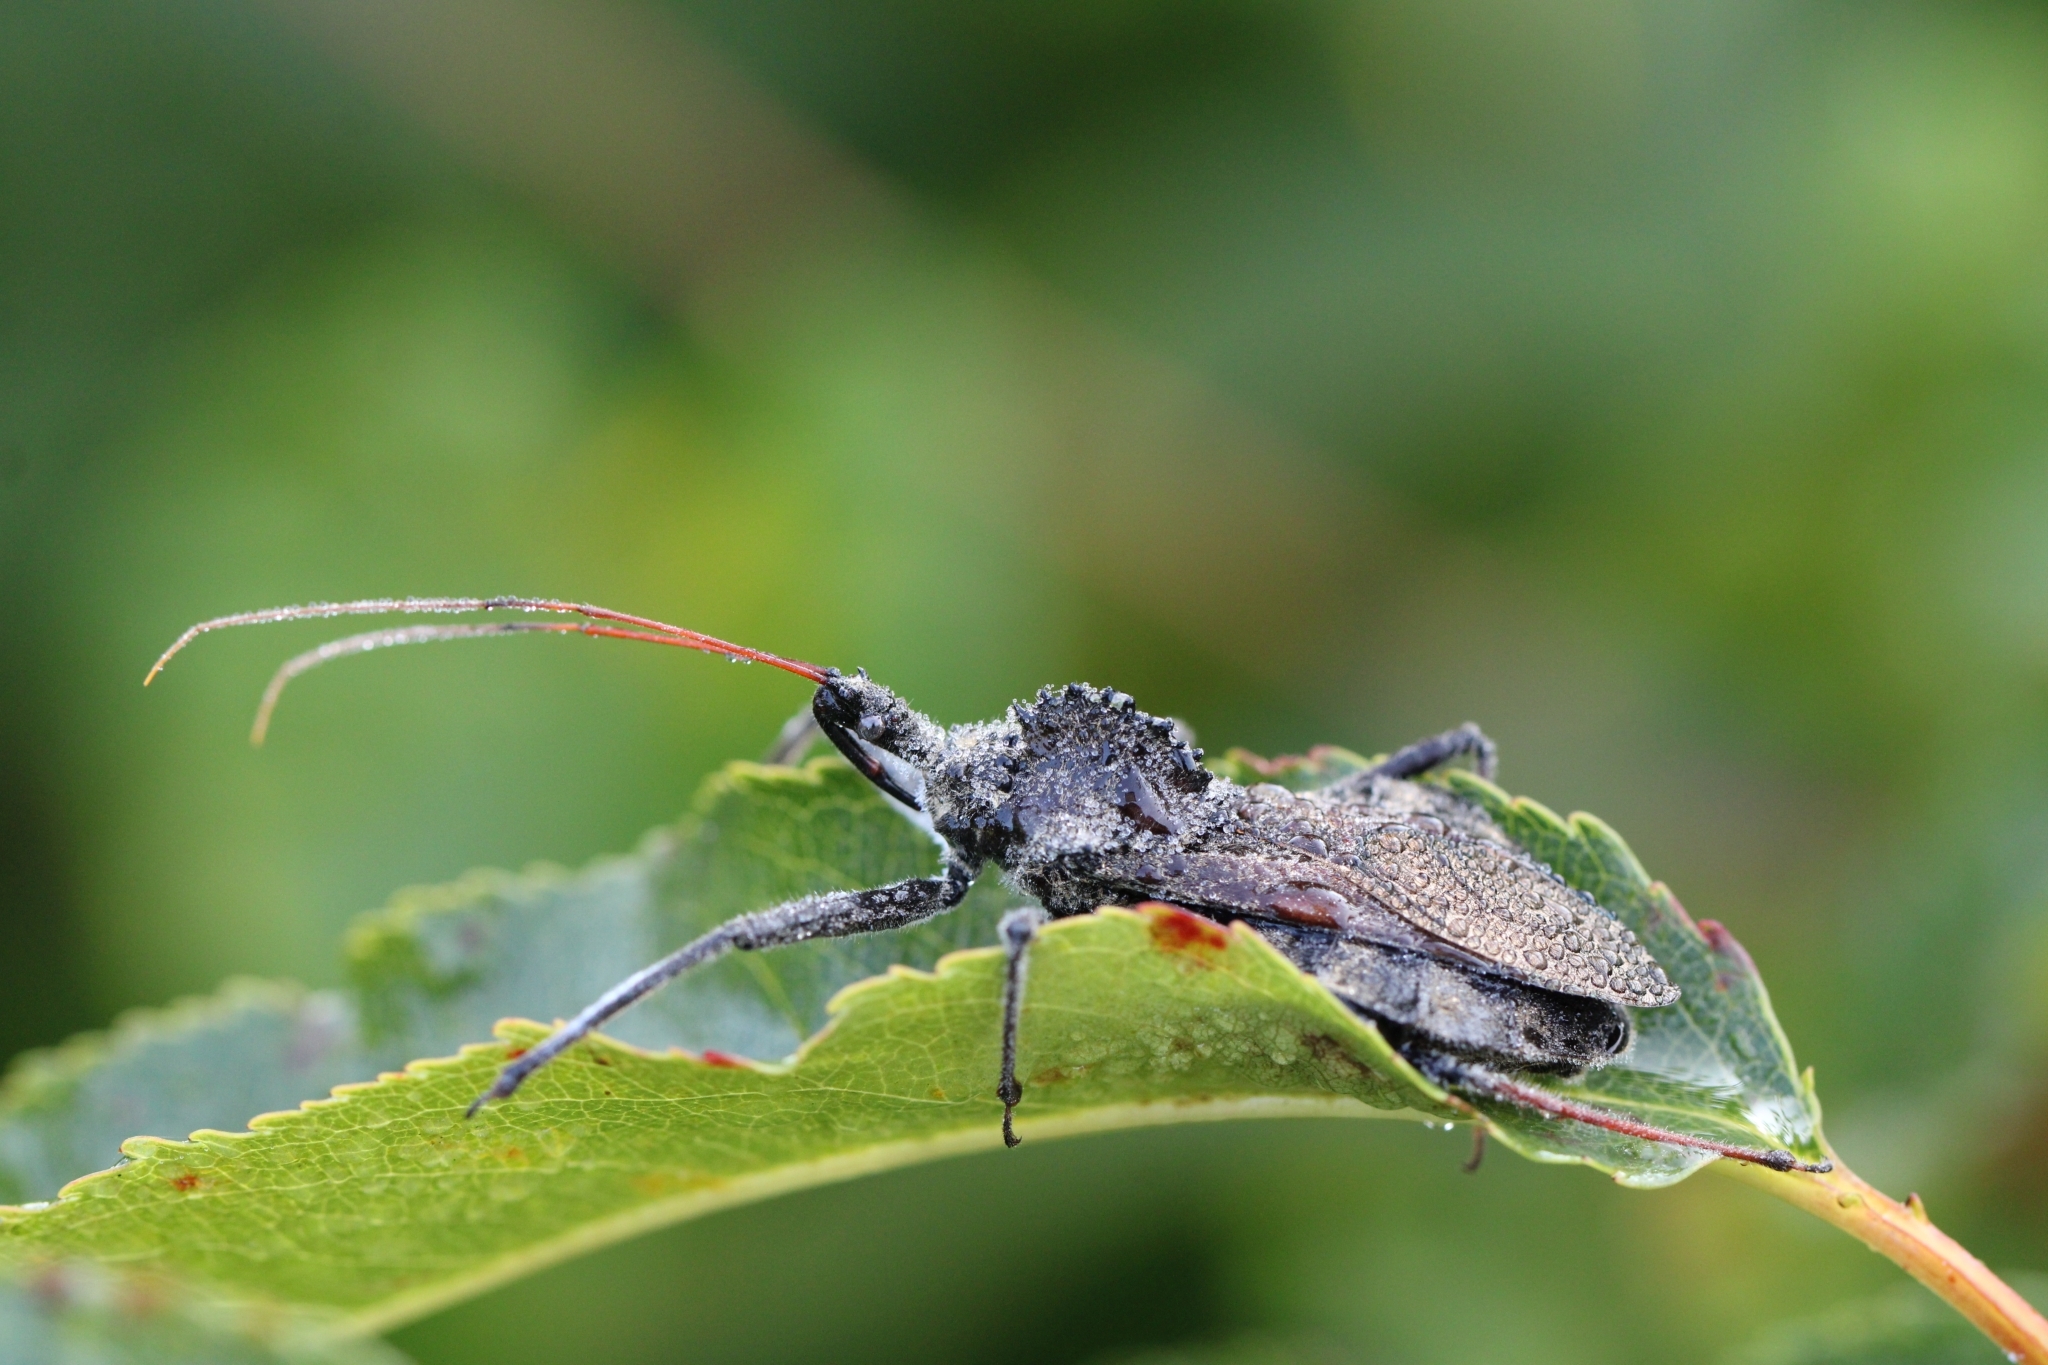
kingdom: Animalia
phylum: Arthropoda
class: Insecta
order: Hemiptera
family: Reduviidae
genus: Arilus
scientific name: Arilus cristatus
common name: North american wheel bug
